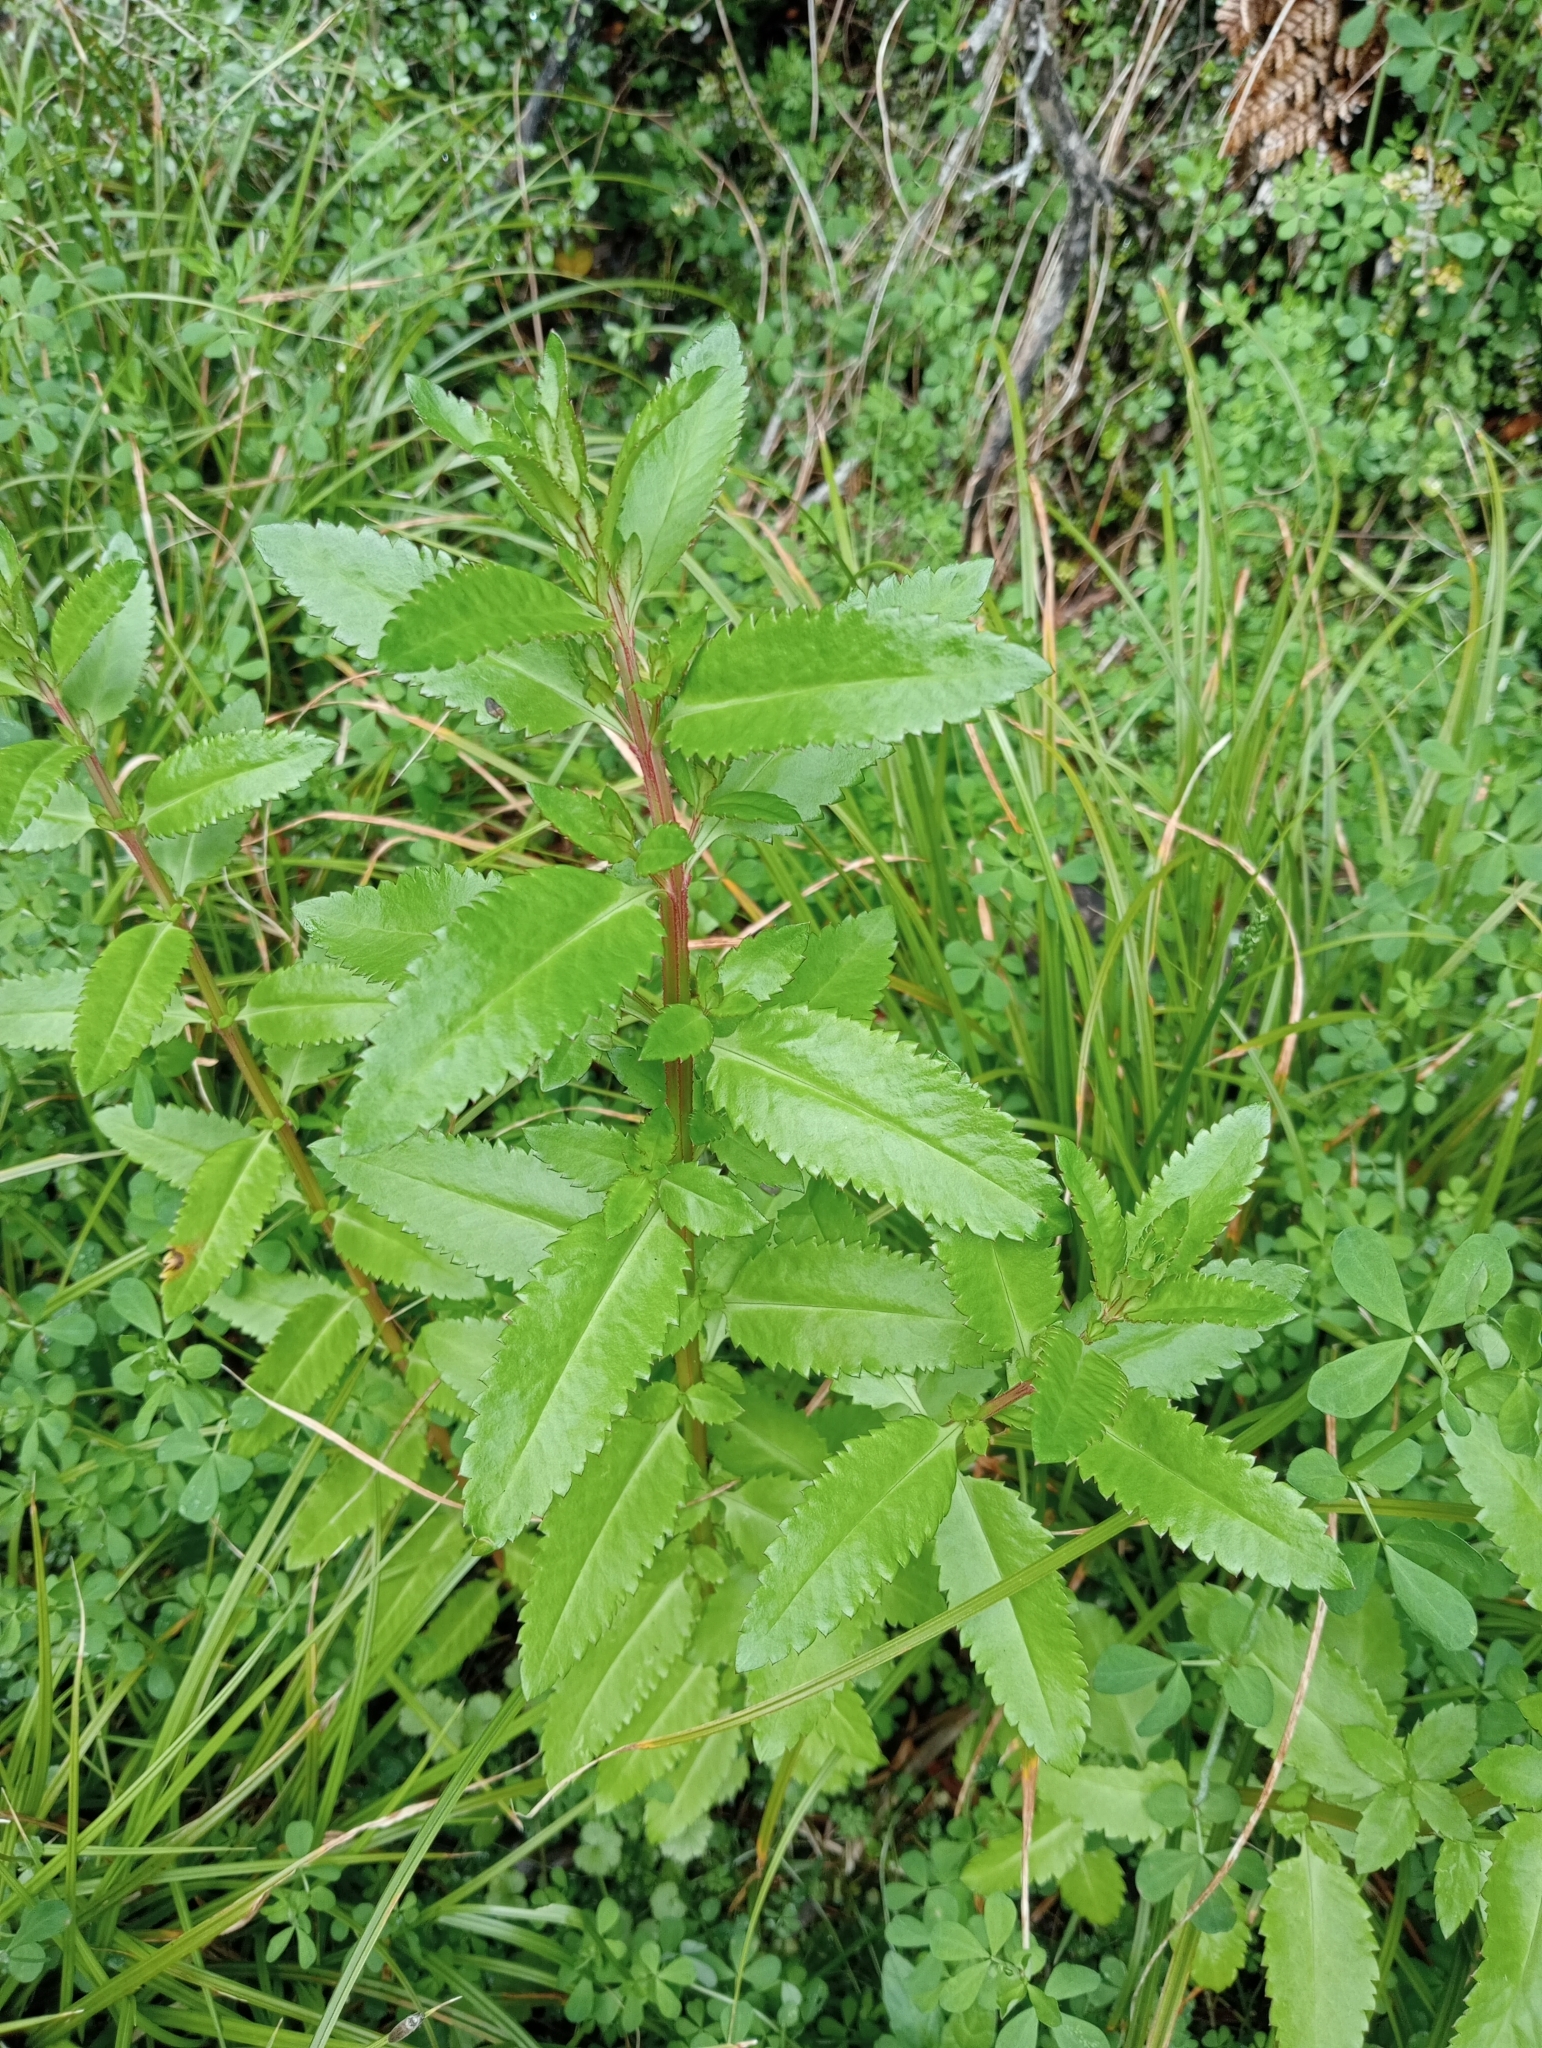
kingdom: Plantae
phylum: Tracheophyta
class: Magnoliopsida
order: Saxifragales
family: Haloragaceae
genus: Haloragis
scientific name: Haloragis erecta
